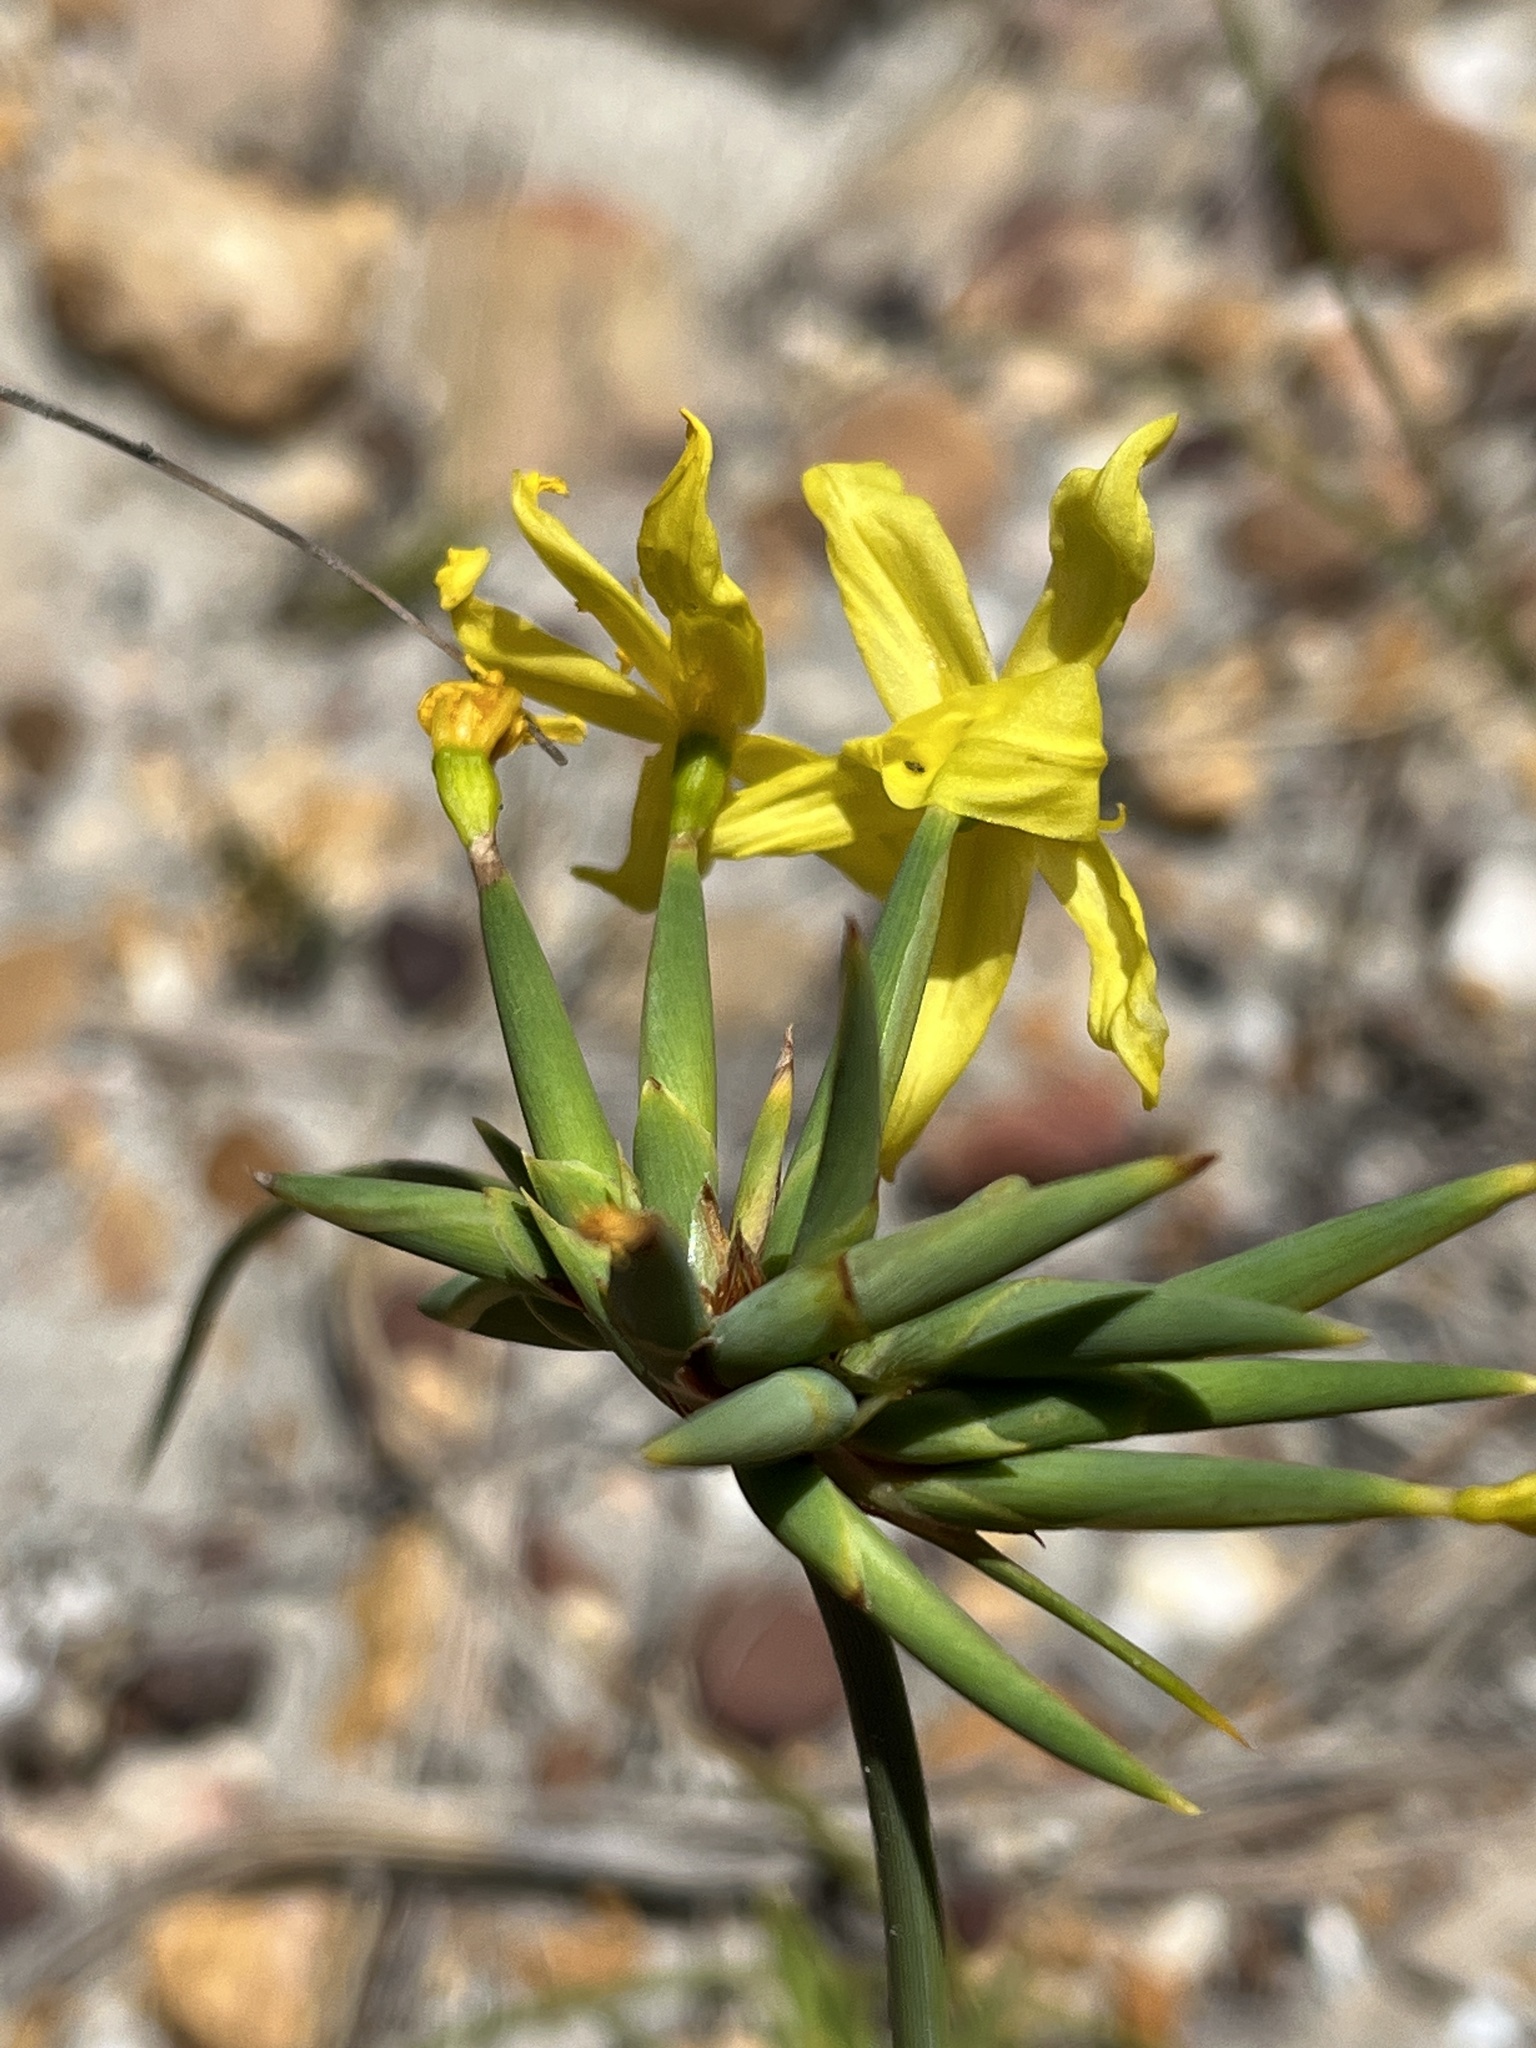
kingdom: Plantae
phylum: Tracheophyta
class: Liliopsida
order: Asparagales
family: Iridaceae
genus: Bobartia
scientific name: Bobartia indica
